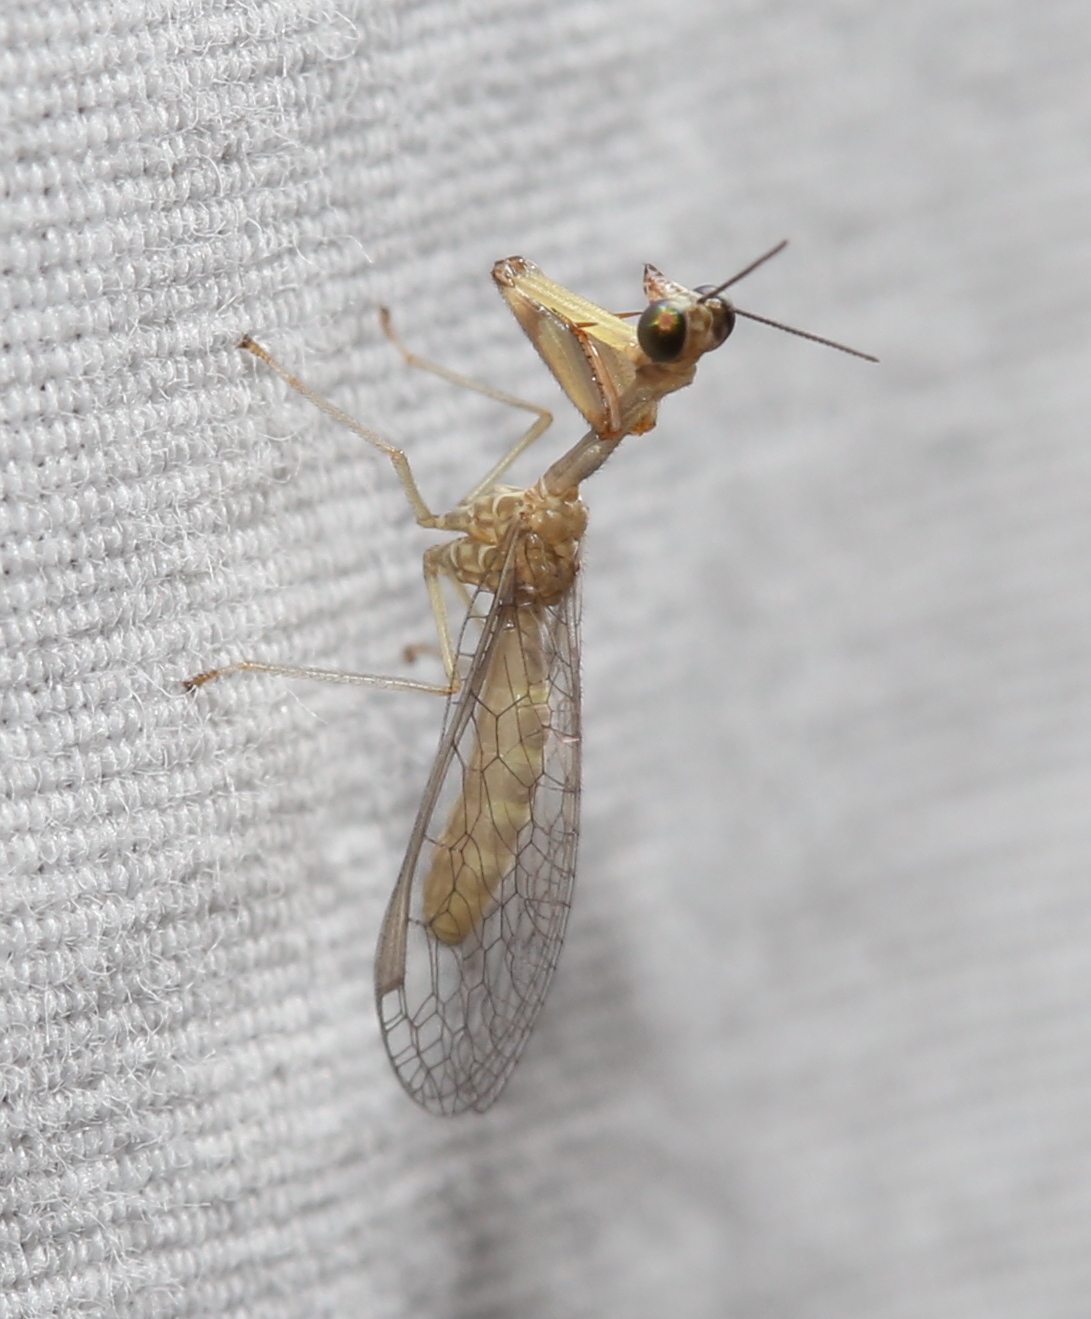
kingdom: Animalia
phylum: Arthropoda
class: Insecta
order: Neuroptera
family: Mantispidae
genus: Leptomantispa
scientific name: Leptomantispa pulchella
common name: Stevens's mantidfly
